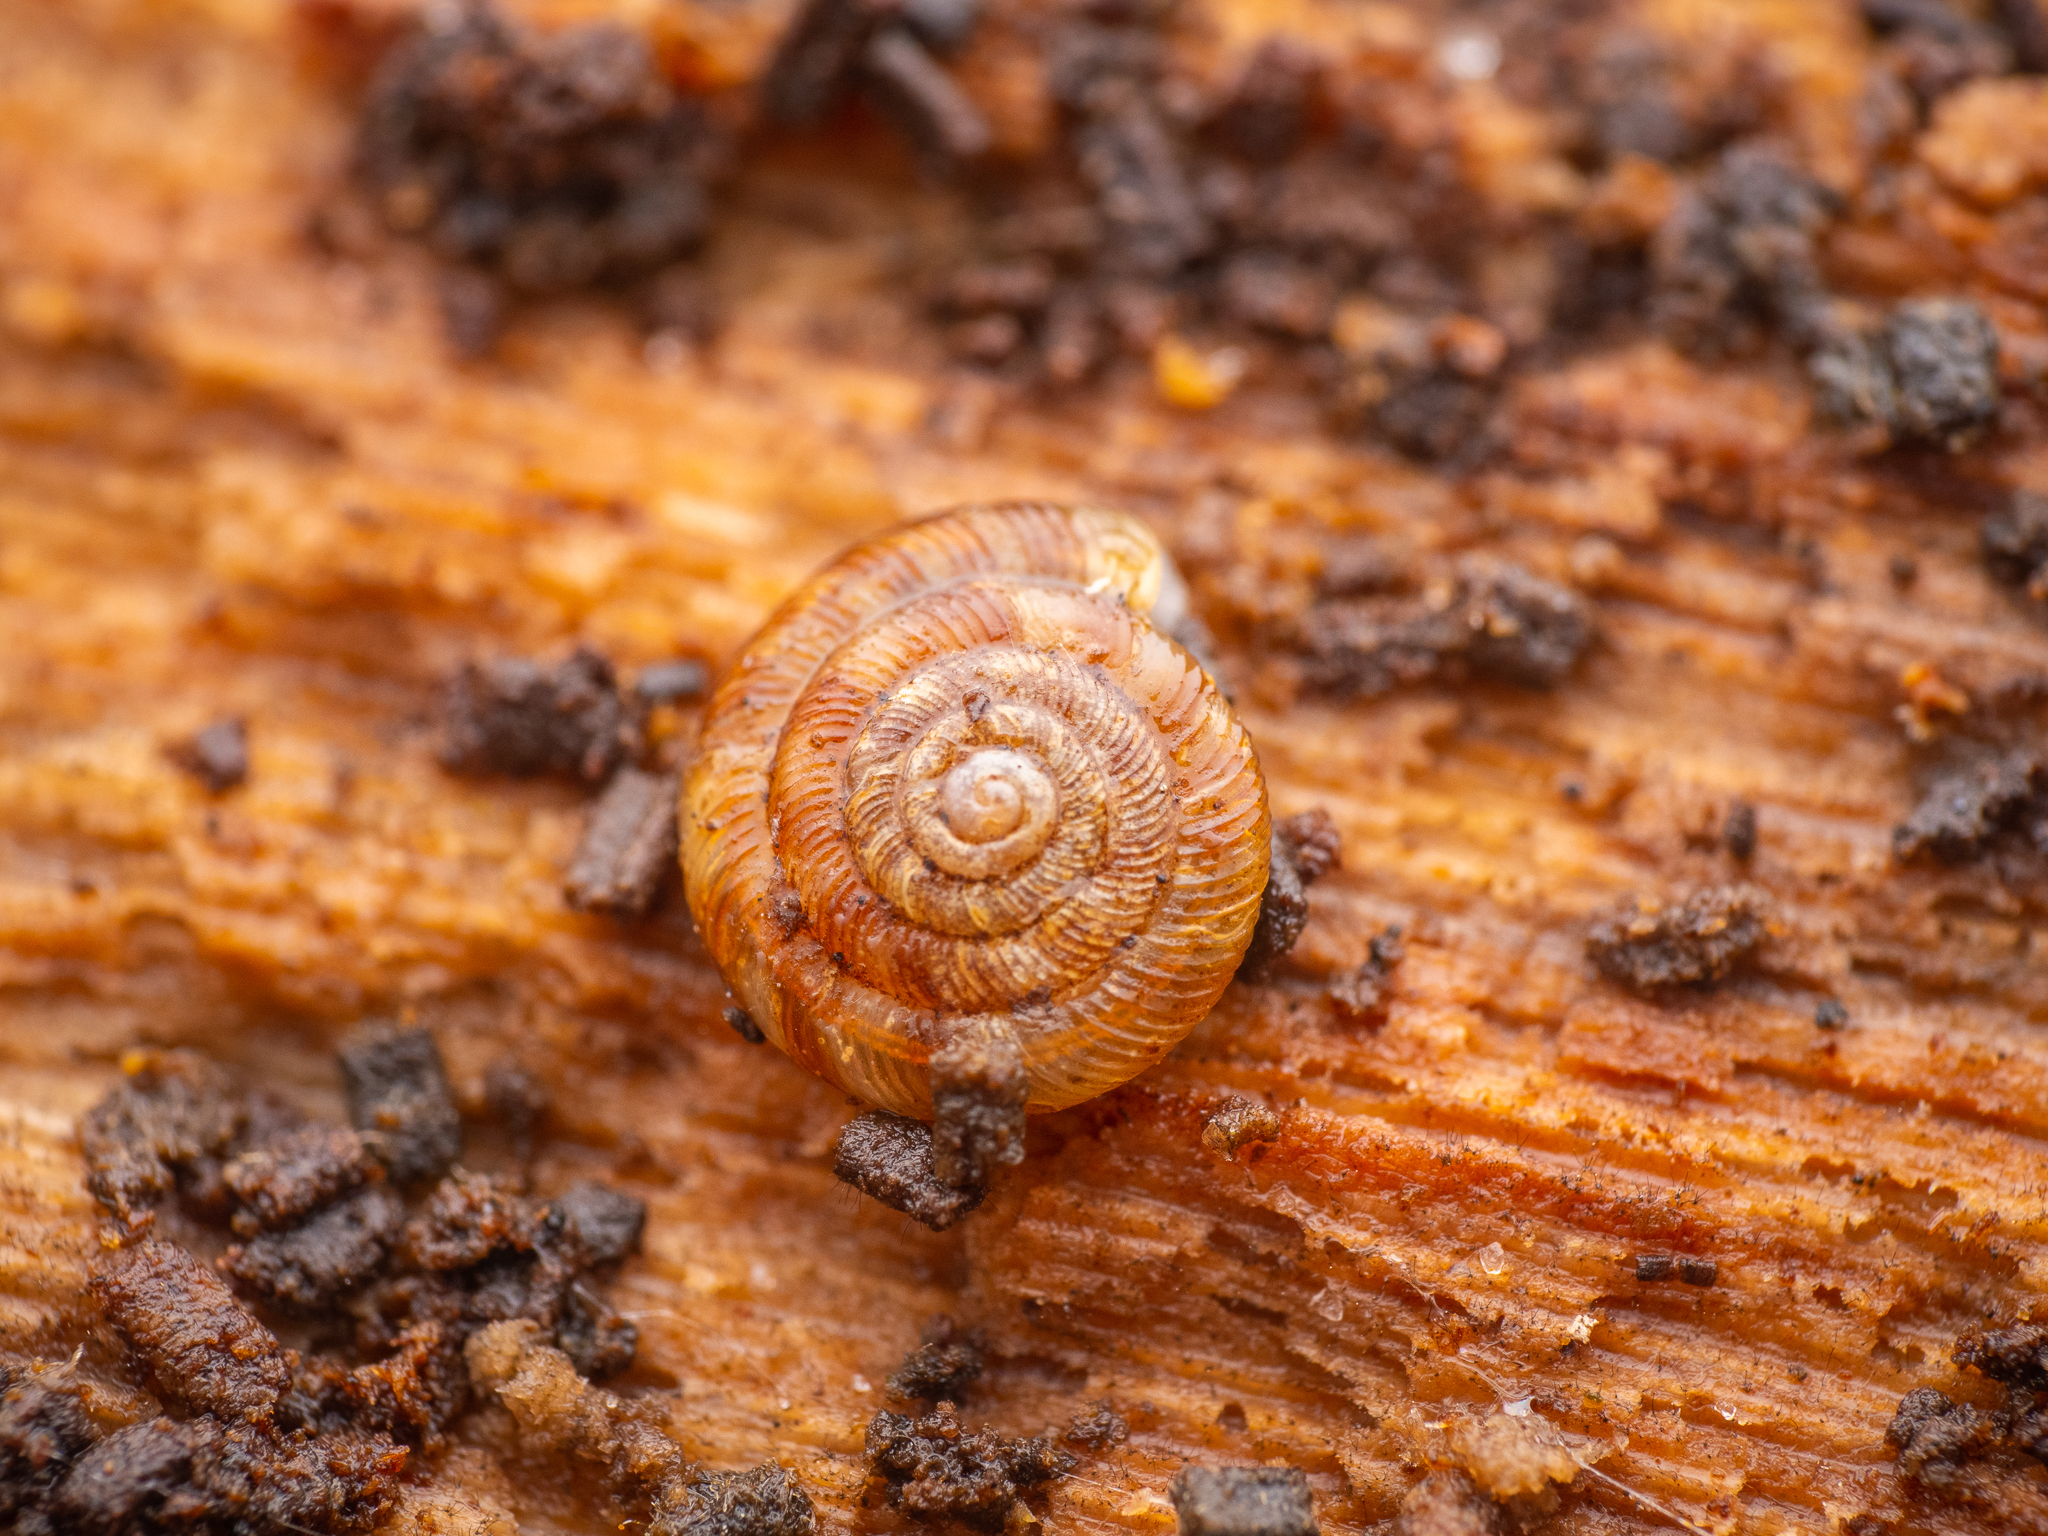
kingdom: Animalia
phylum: Mollusca
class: Gastropoda
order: Stylommatophora
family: Discidae
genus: Discus
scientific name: Discus rotundatus
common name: Rounded snail
